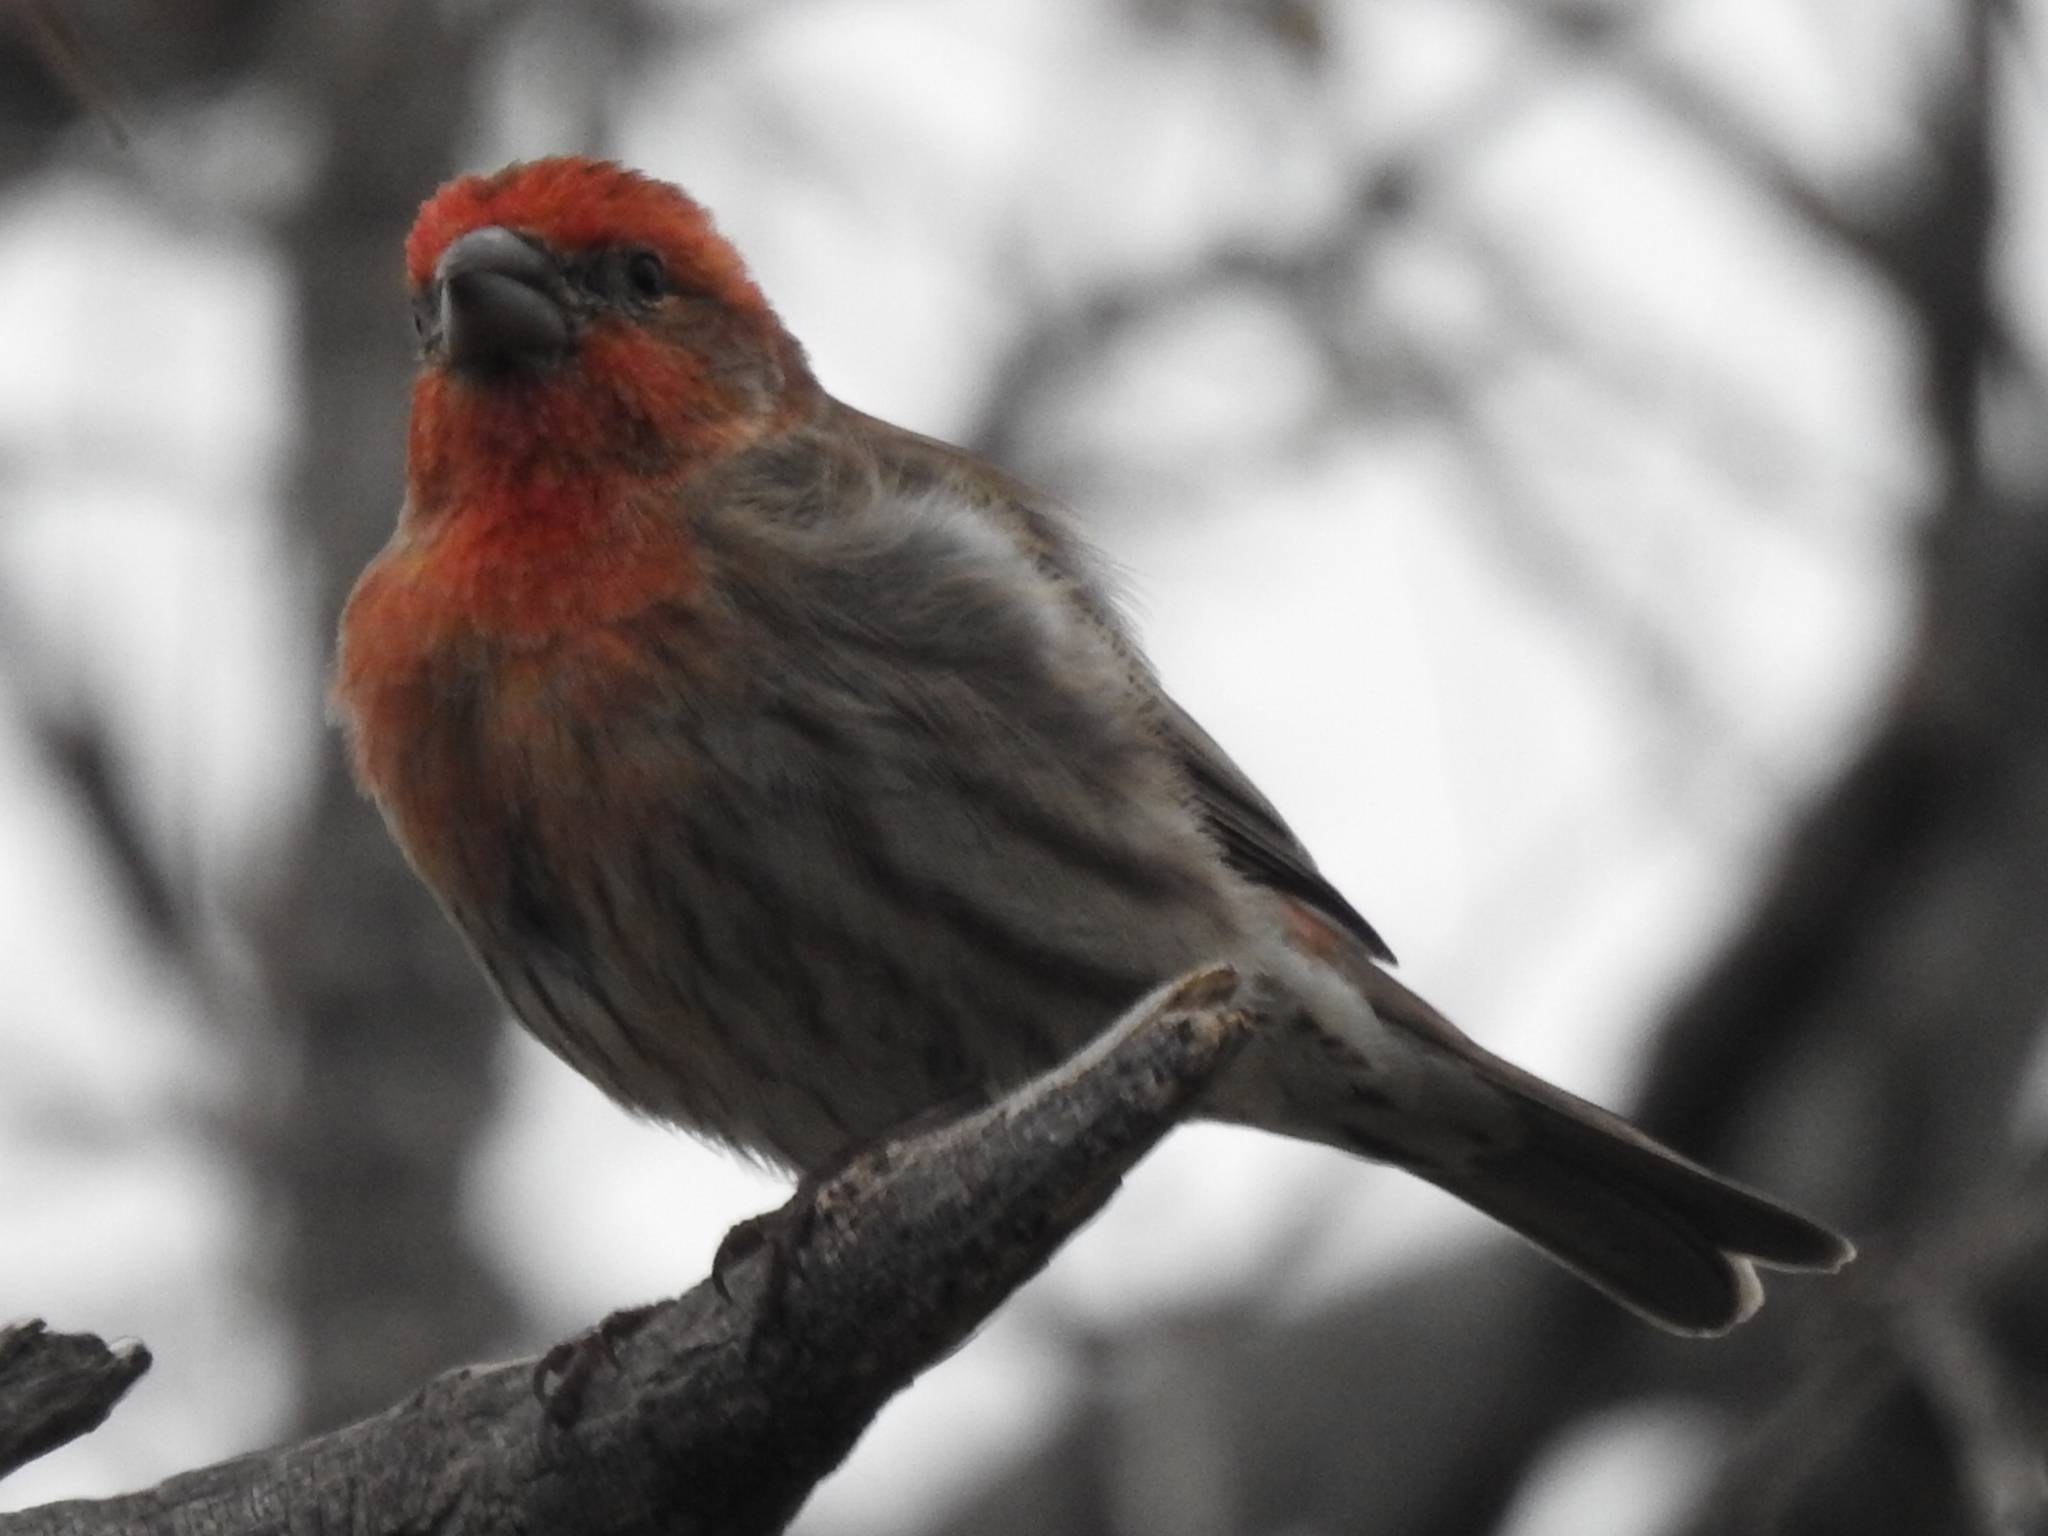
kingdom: Animalia
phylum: Chordata
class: Aves
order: Passeriformes
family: Fringillidae
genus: Haemorhous
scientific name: Haemorhous mexicanus
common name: House finch
